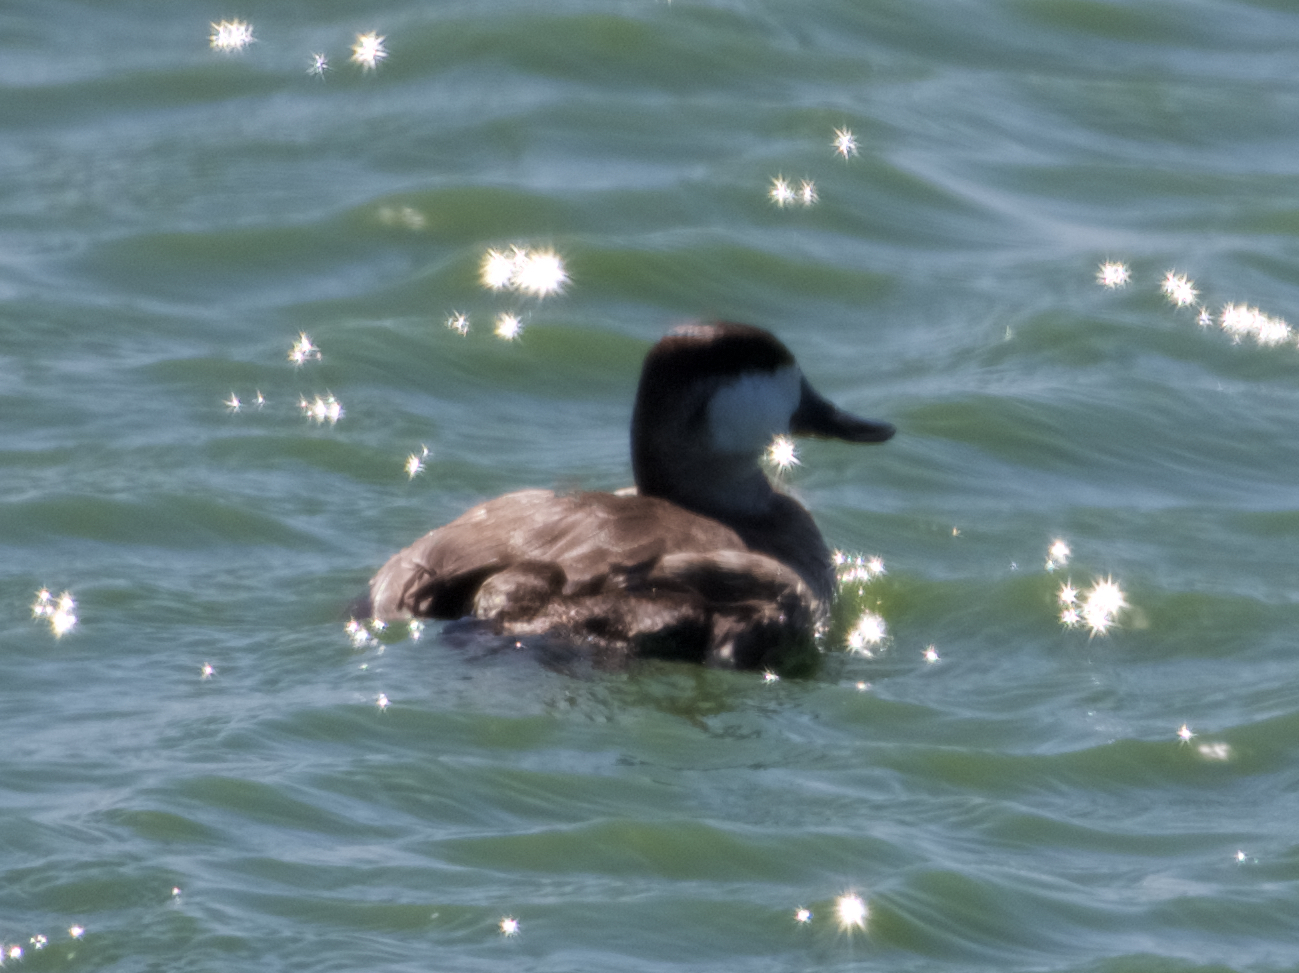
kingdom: Animalia
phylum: Chordata
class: Aves
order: Anseriformes
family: Anatidae
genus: Oxyura
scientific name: Oxyura jamaicensis
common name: Ruddy duck
